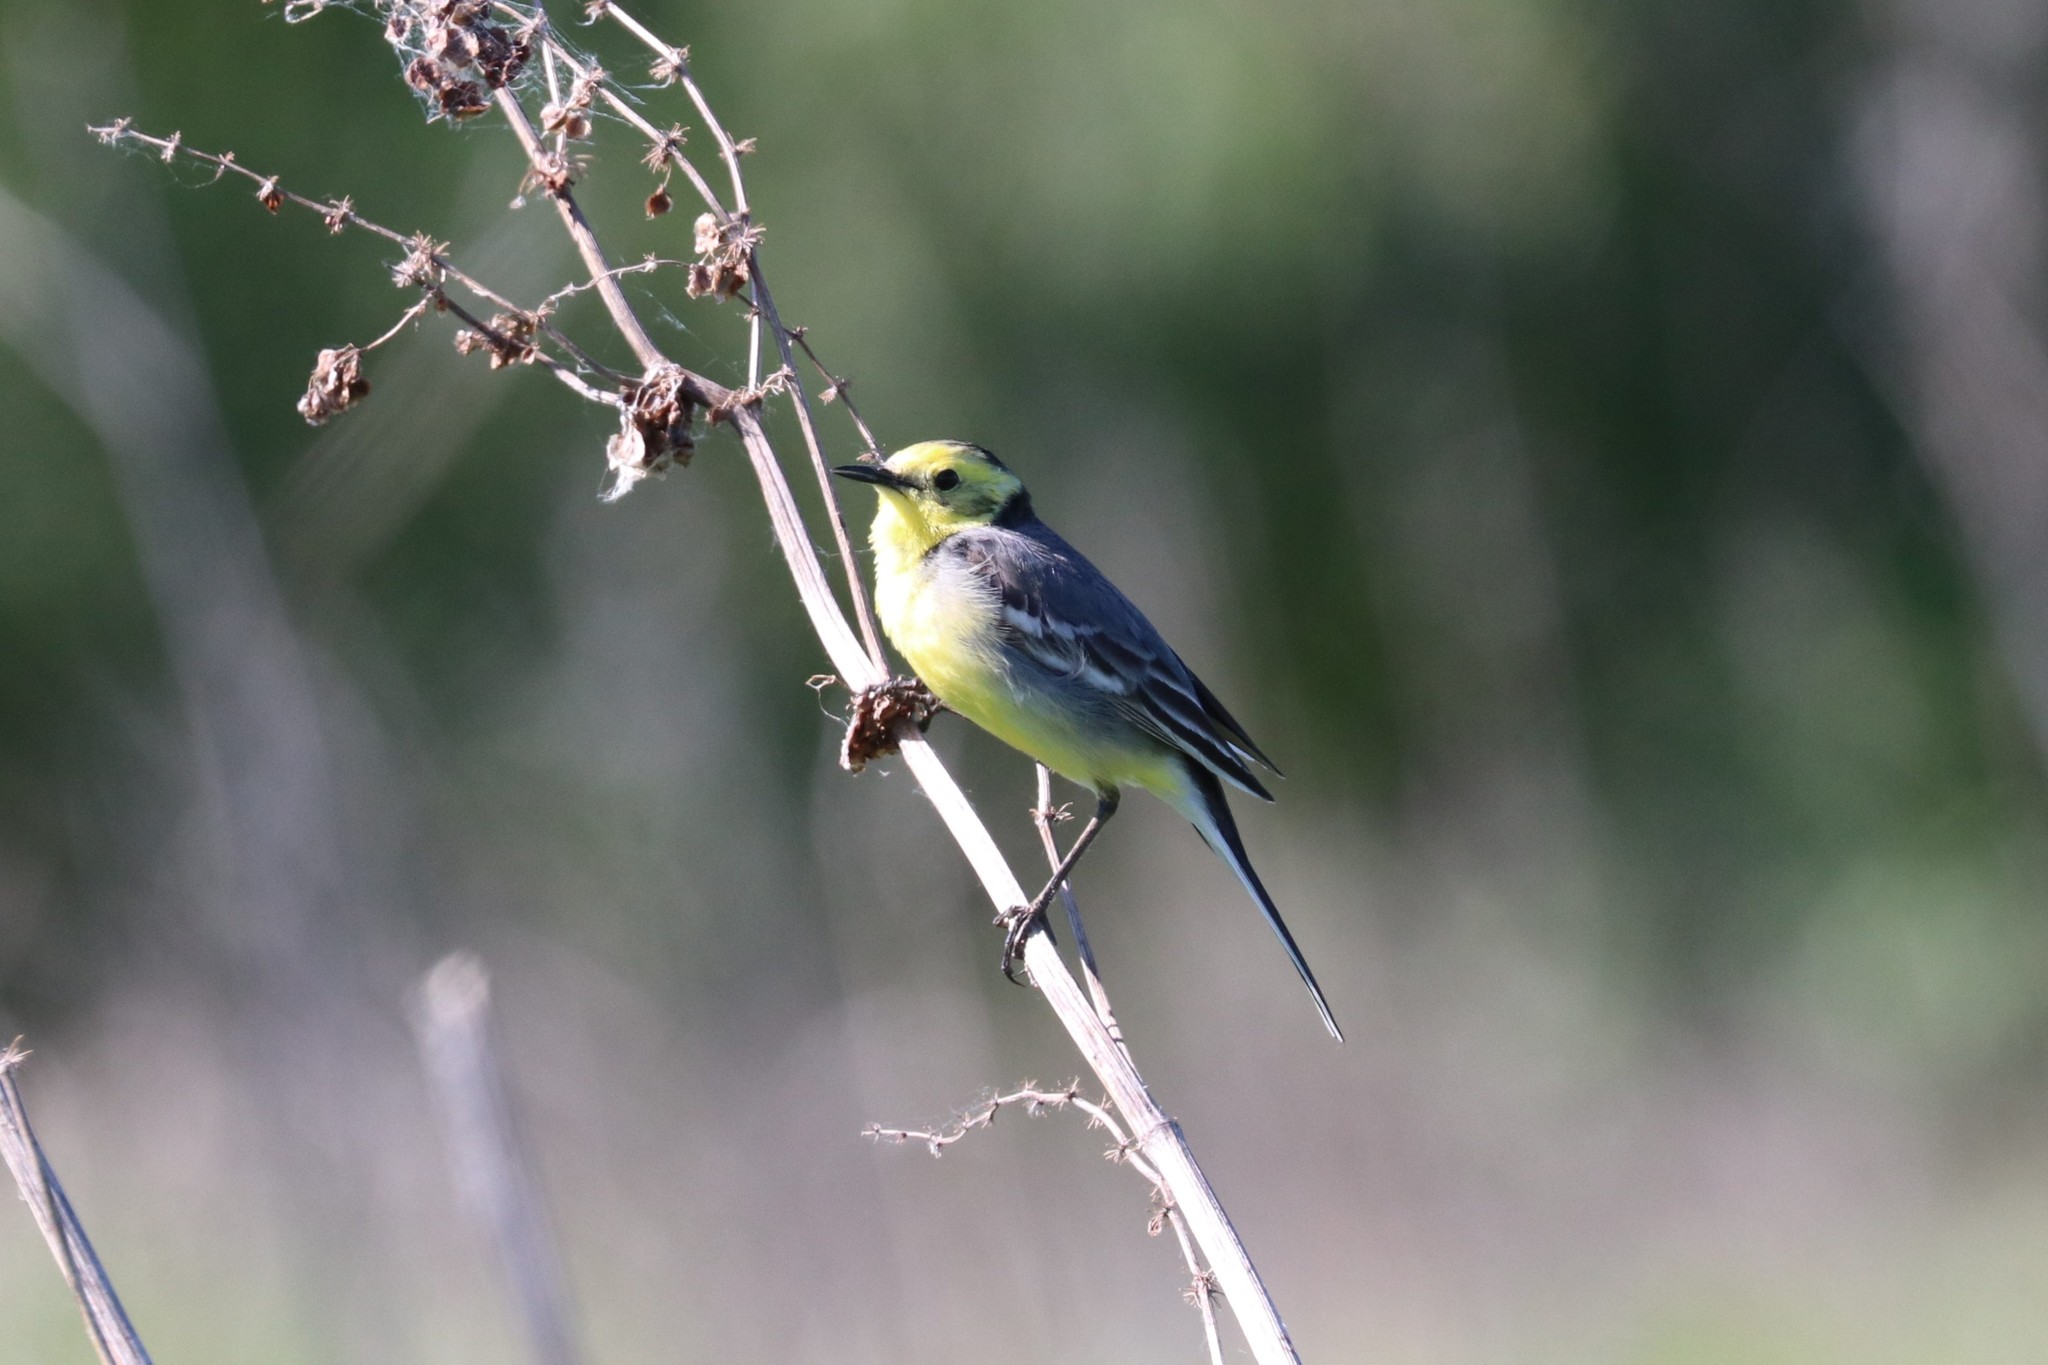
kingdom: Animalia
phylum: Chordata
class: Aves
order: Passeriformes
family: Motacillidae
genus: Motacilla
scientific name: Motacilla citreola
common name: Citrine wagtail
